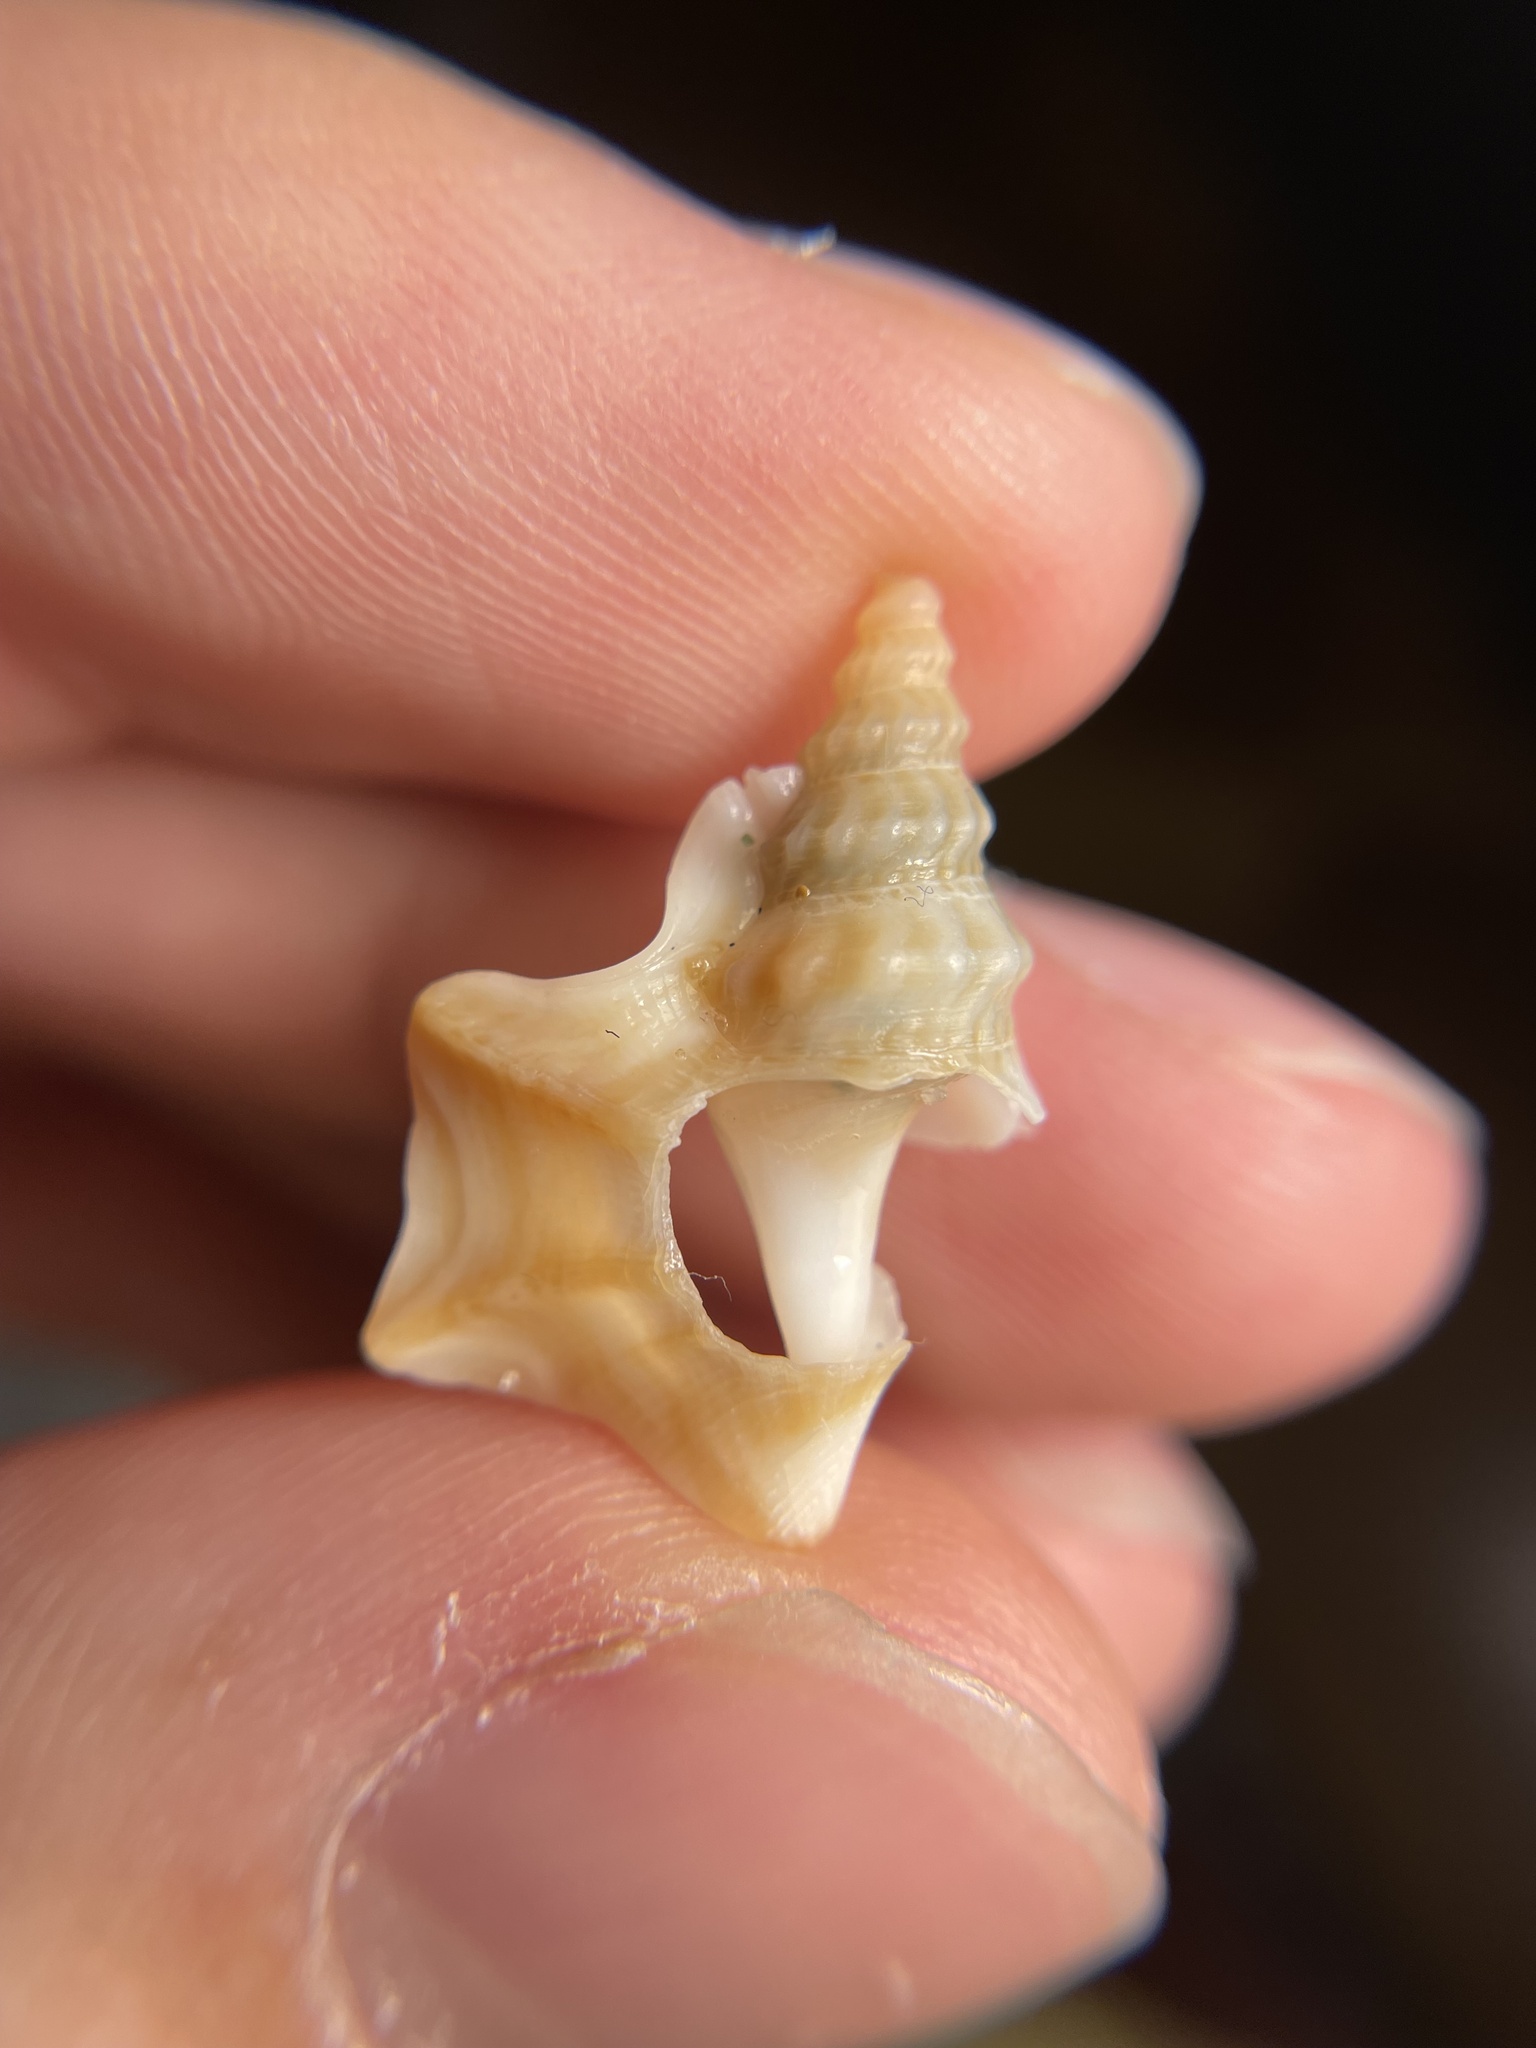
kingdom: Animalia
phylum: Mollusca
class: Gastropoda
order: Littorinimorpha
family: Aporrhaidae
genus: Aporrhais
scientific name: Aporrhais pespelecani
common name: Common pelican’s foot
